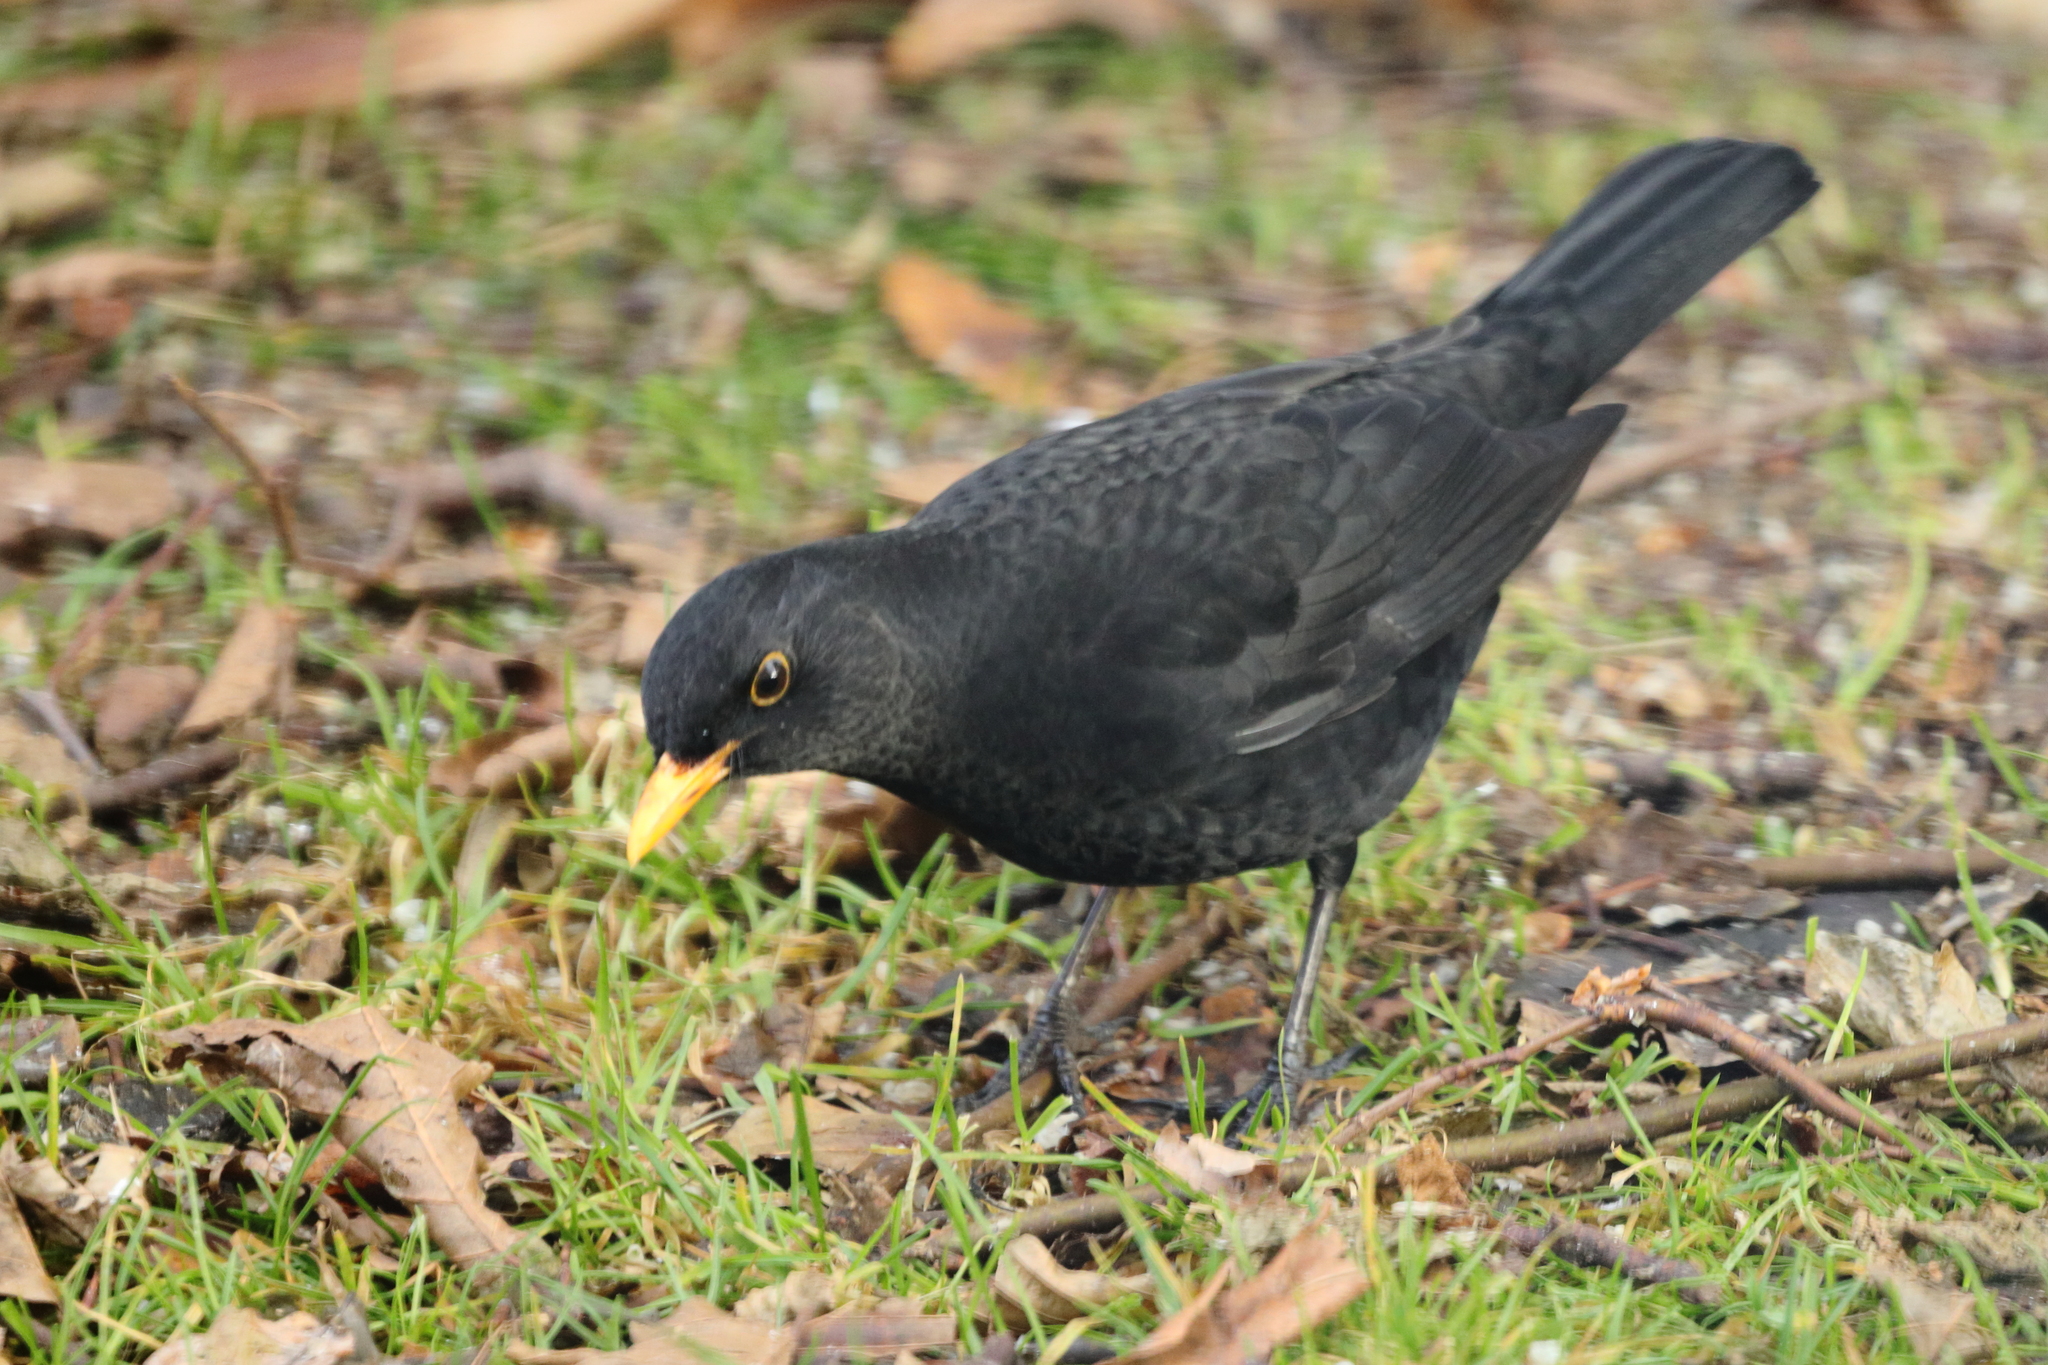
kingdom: Animalia
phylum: Chordata
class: Aves
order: Passeriformes
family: Turdidae
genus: Turdus
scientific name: Turdus merula
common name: Common blackbird
